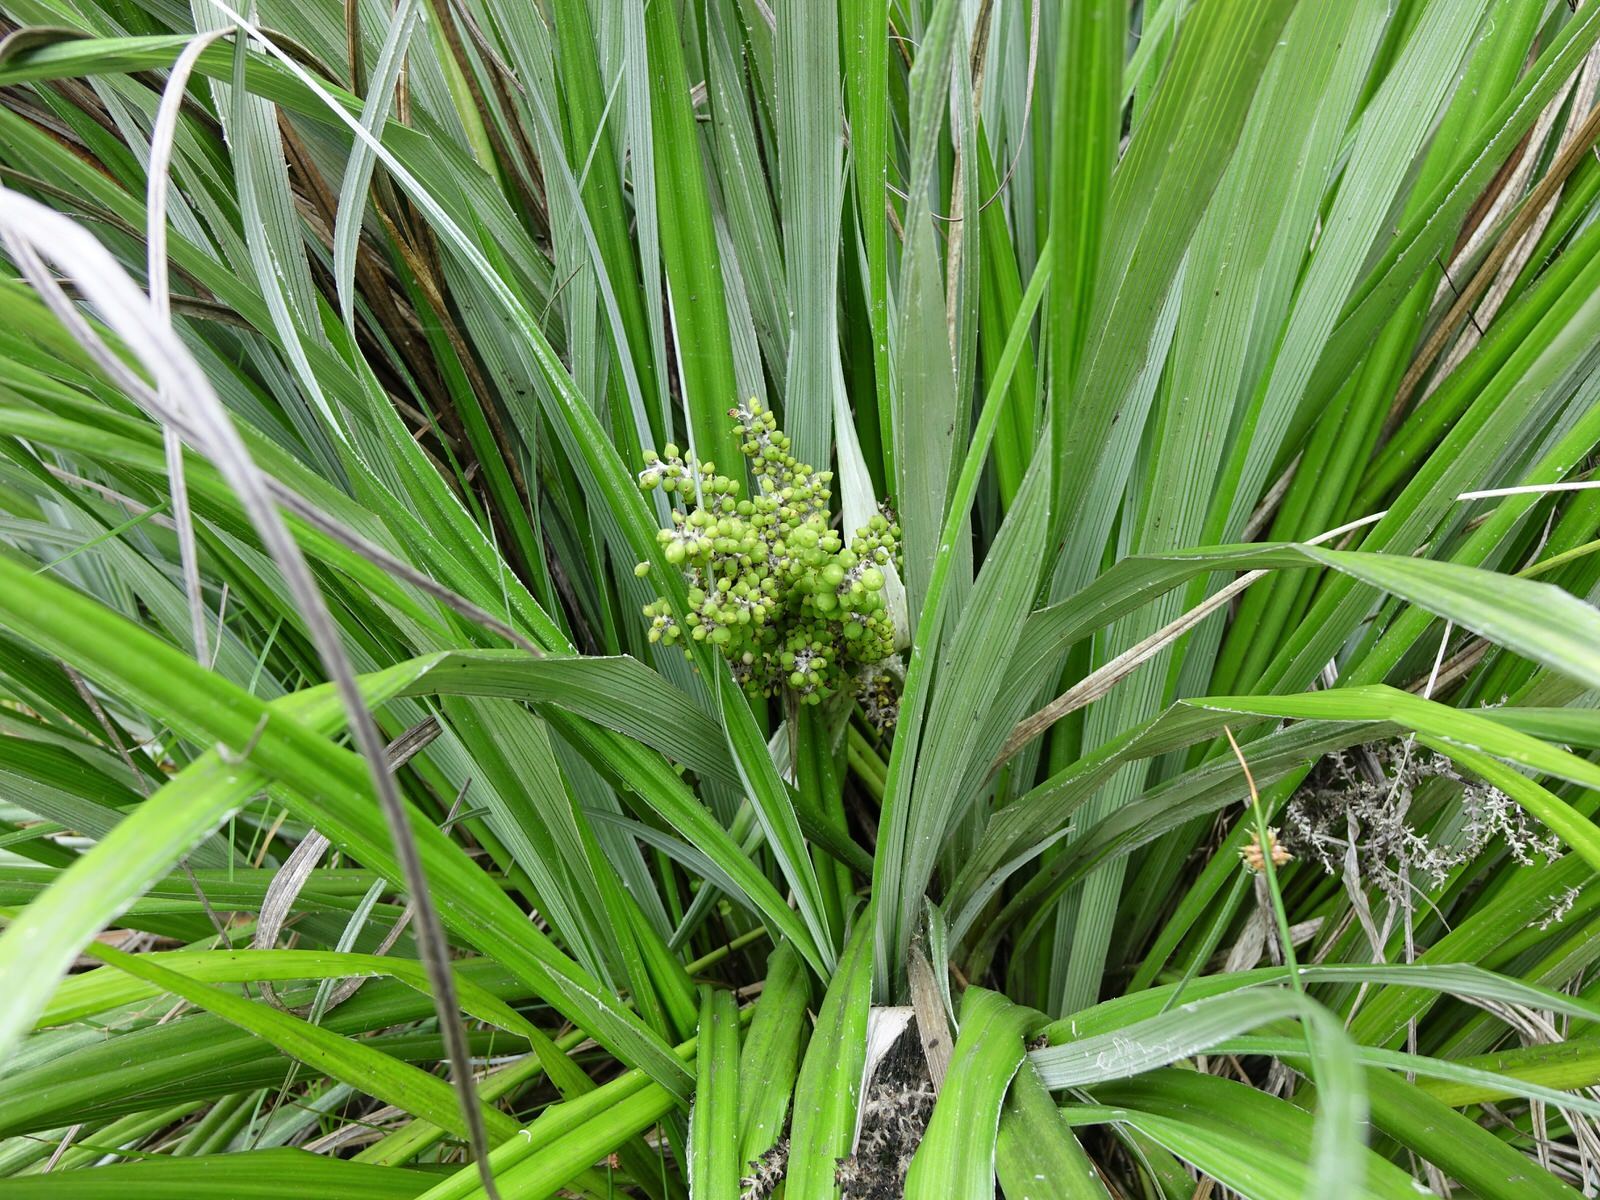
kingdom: Plantae
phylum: Tracheophyta
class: Liliopsida
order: Asparagales
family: Asteliaceae
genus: Astelia
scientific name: Astelia banksii
